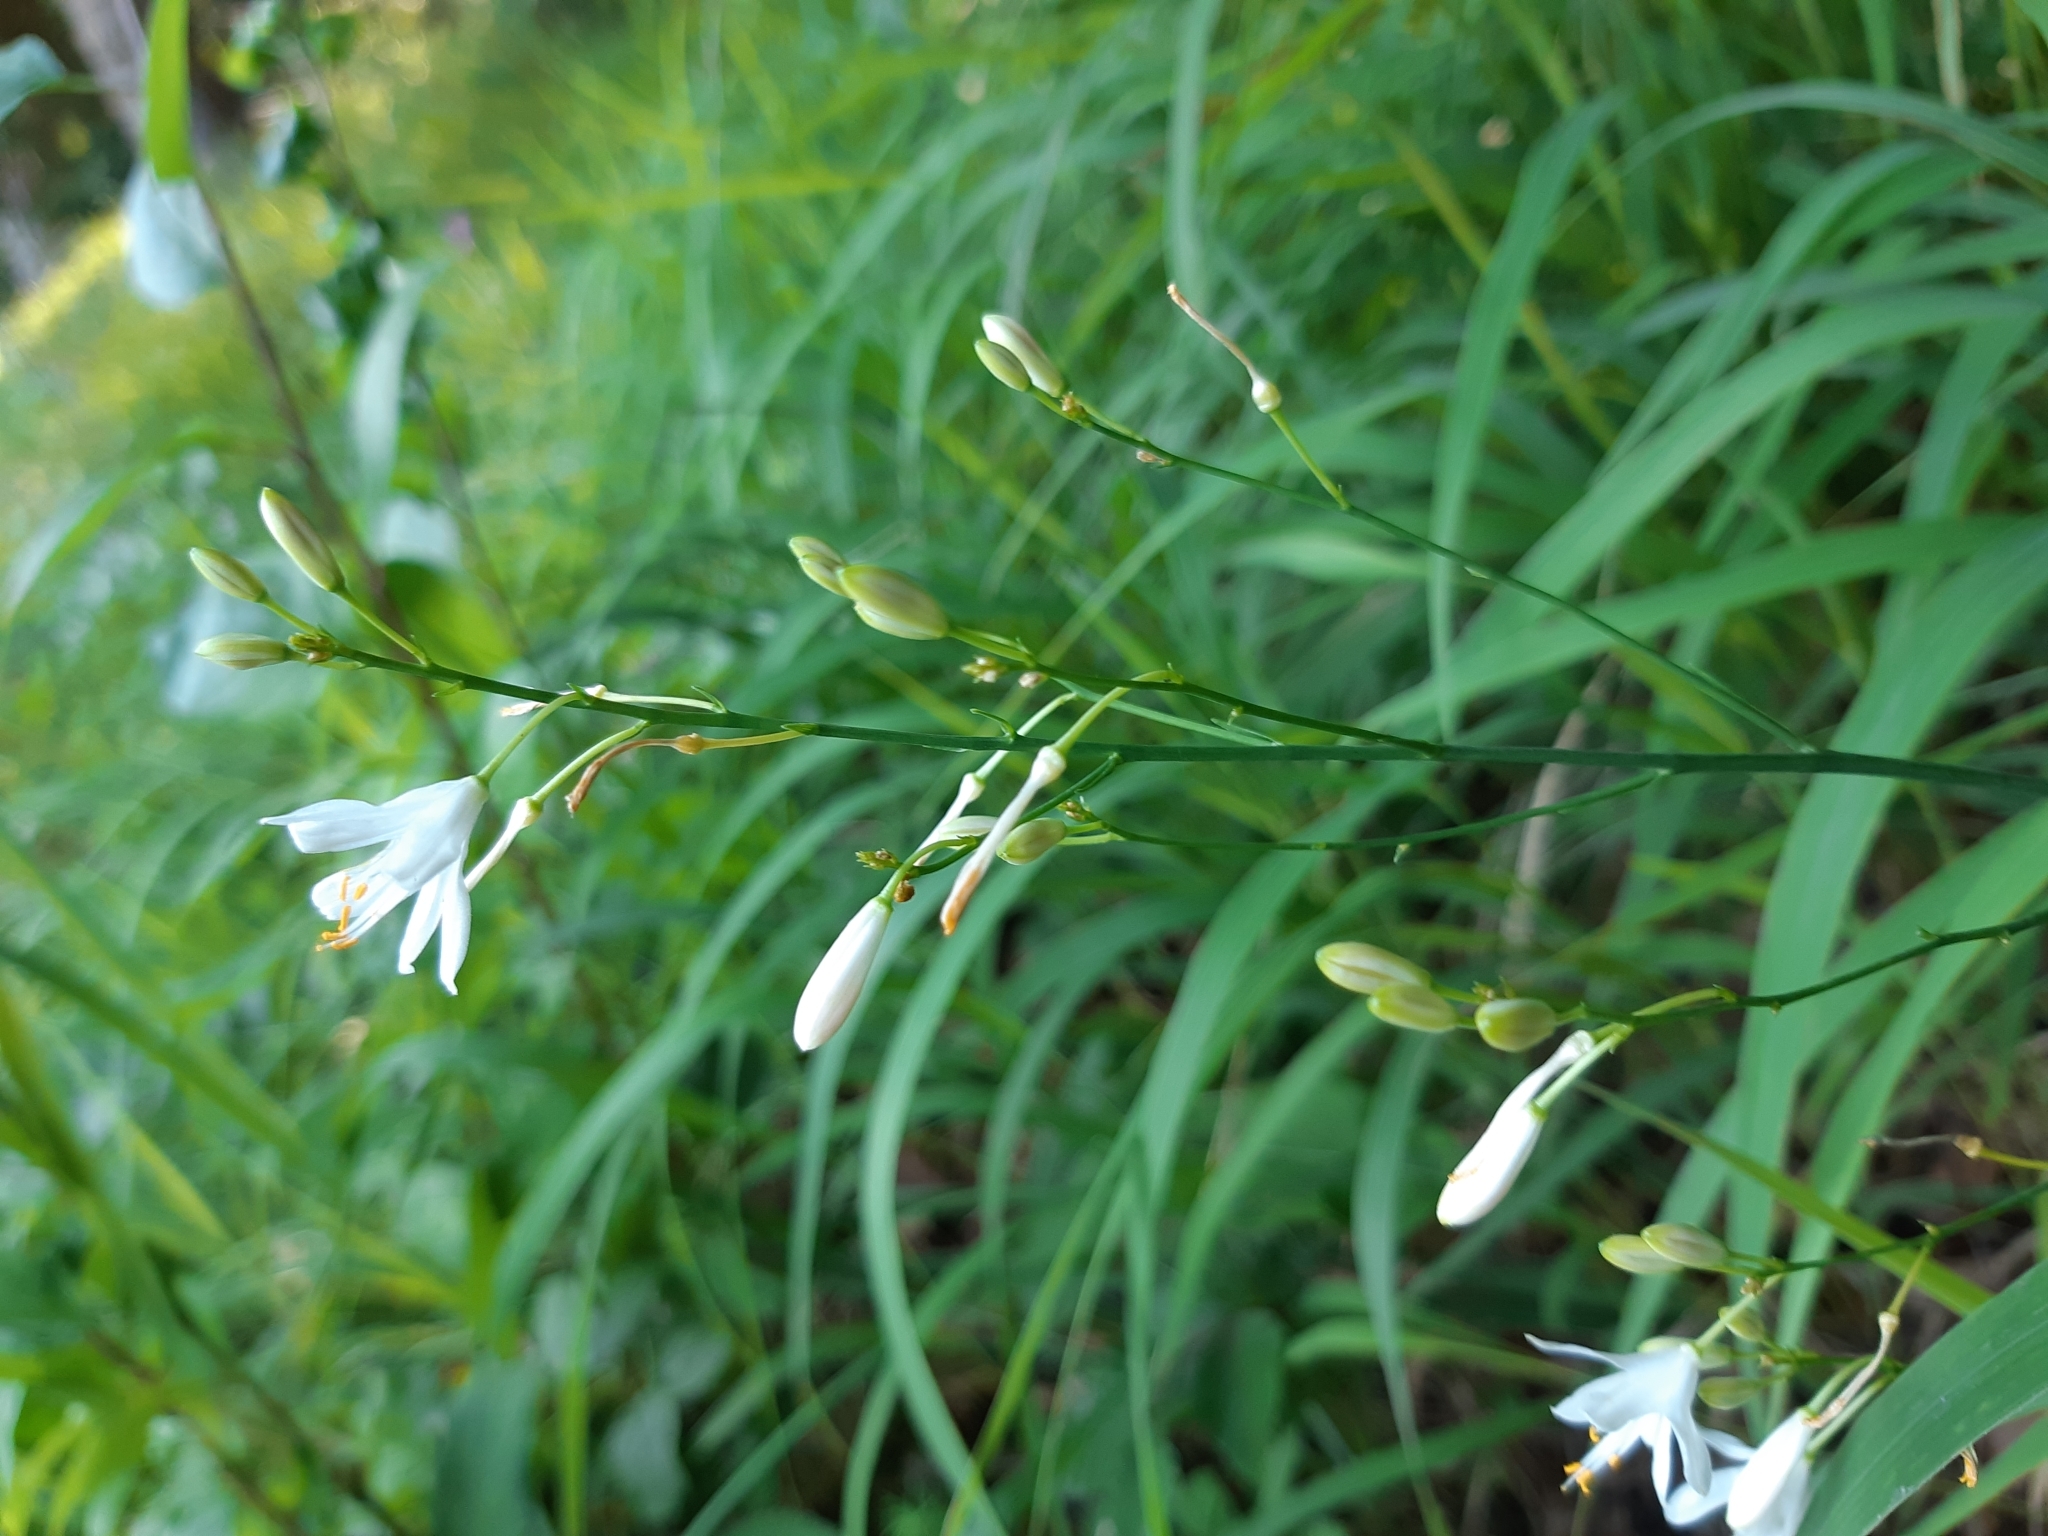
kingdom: Plantae
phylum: Tracheophyta
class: Liliopsida
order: Asparagales
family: Asparagaceae
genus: Anthericum
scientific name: Anthericum ramosum
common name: Branched st. bernard's-lily
